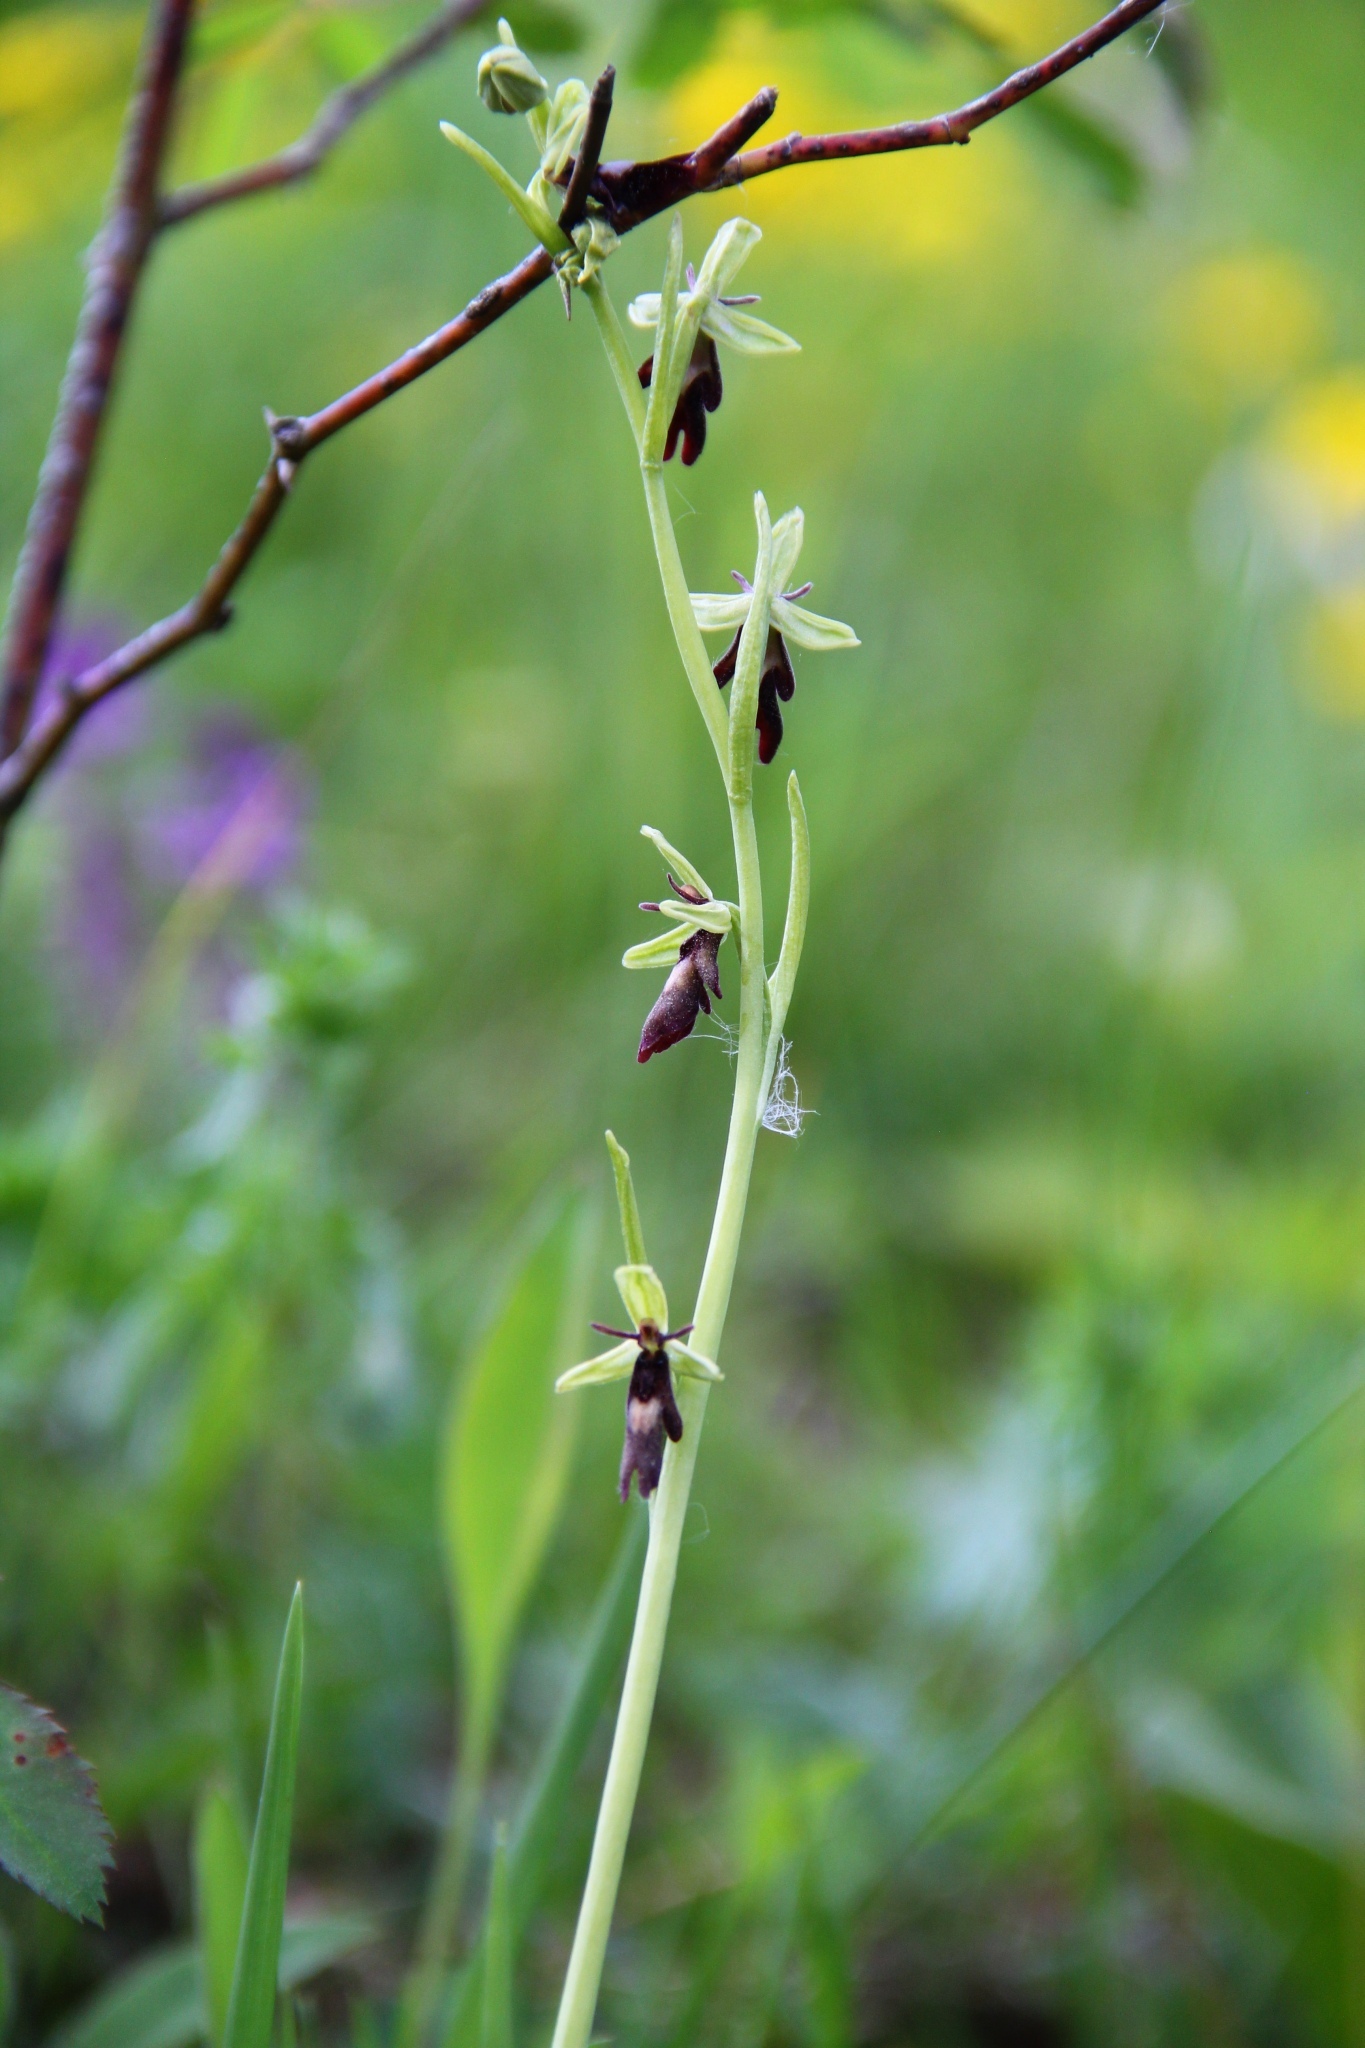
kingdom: Plantae
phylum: Tracheophyta
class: Liliopsida
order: Asparagales
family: Orchidaceae
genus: Ophrys
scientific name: Ophrys insectifera
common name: Fly orchid
